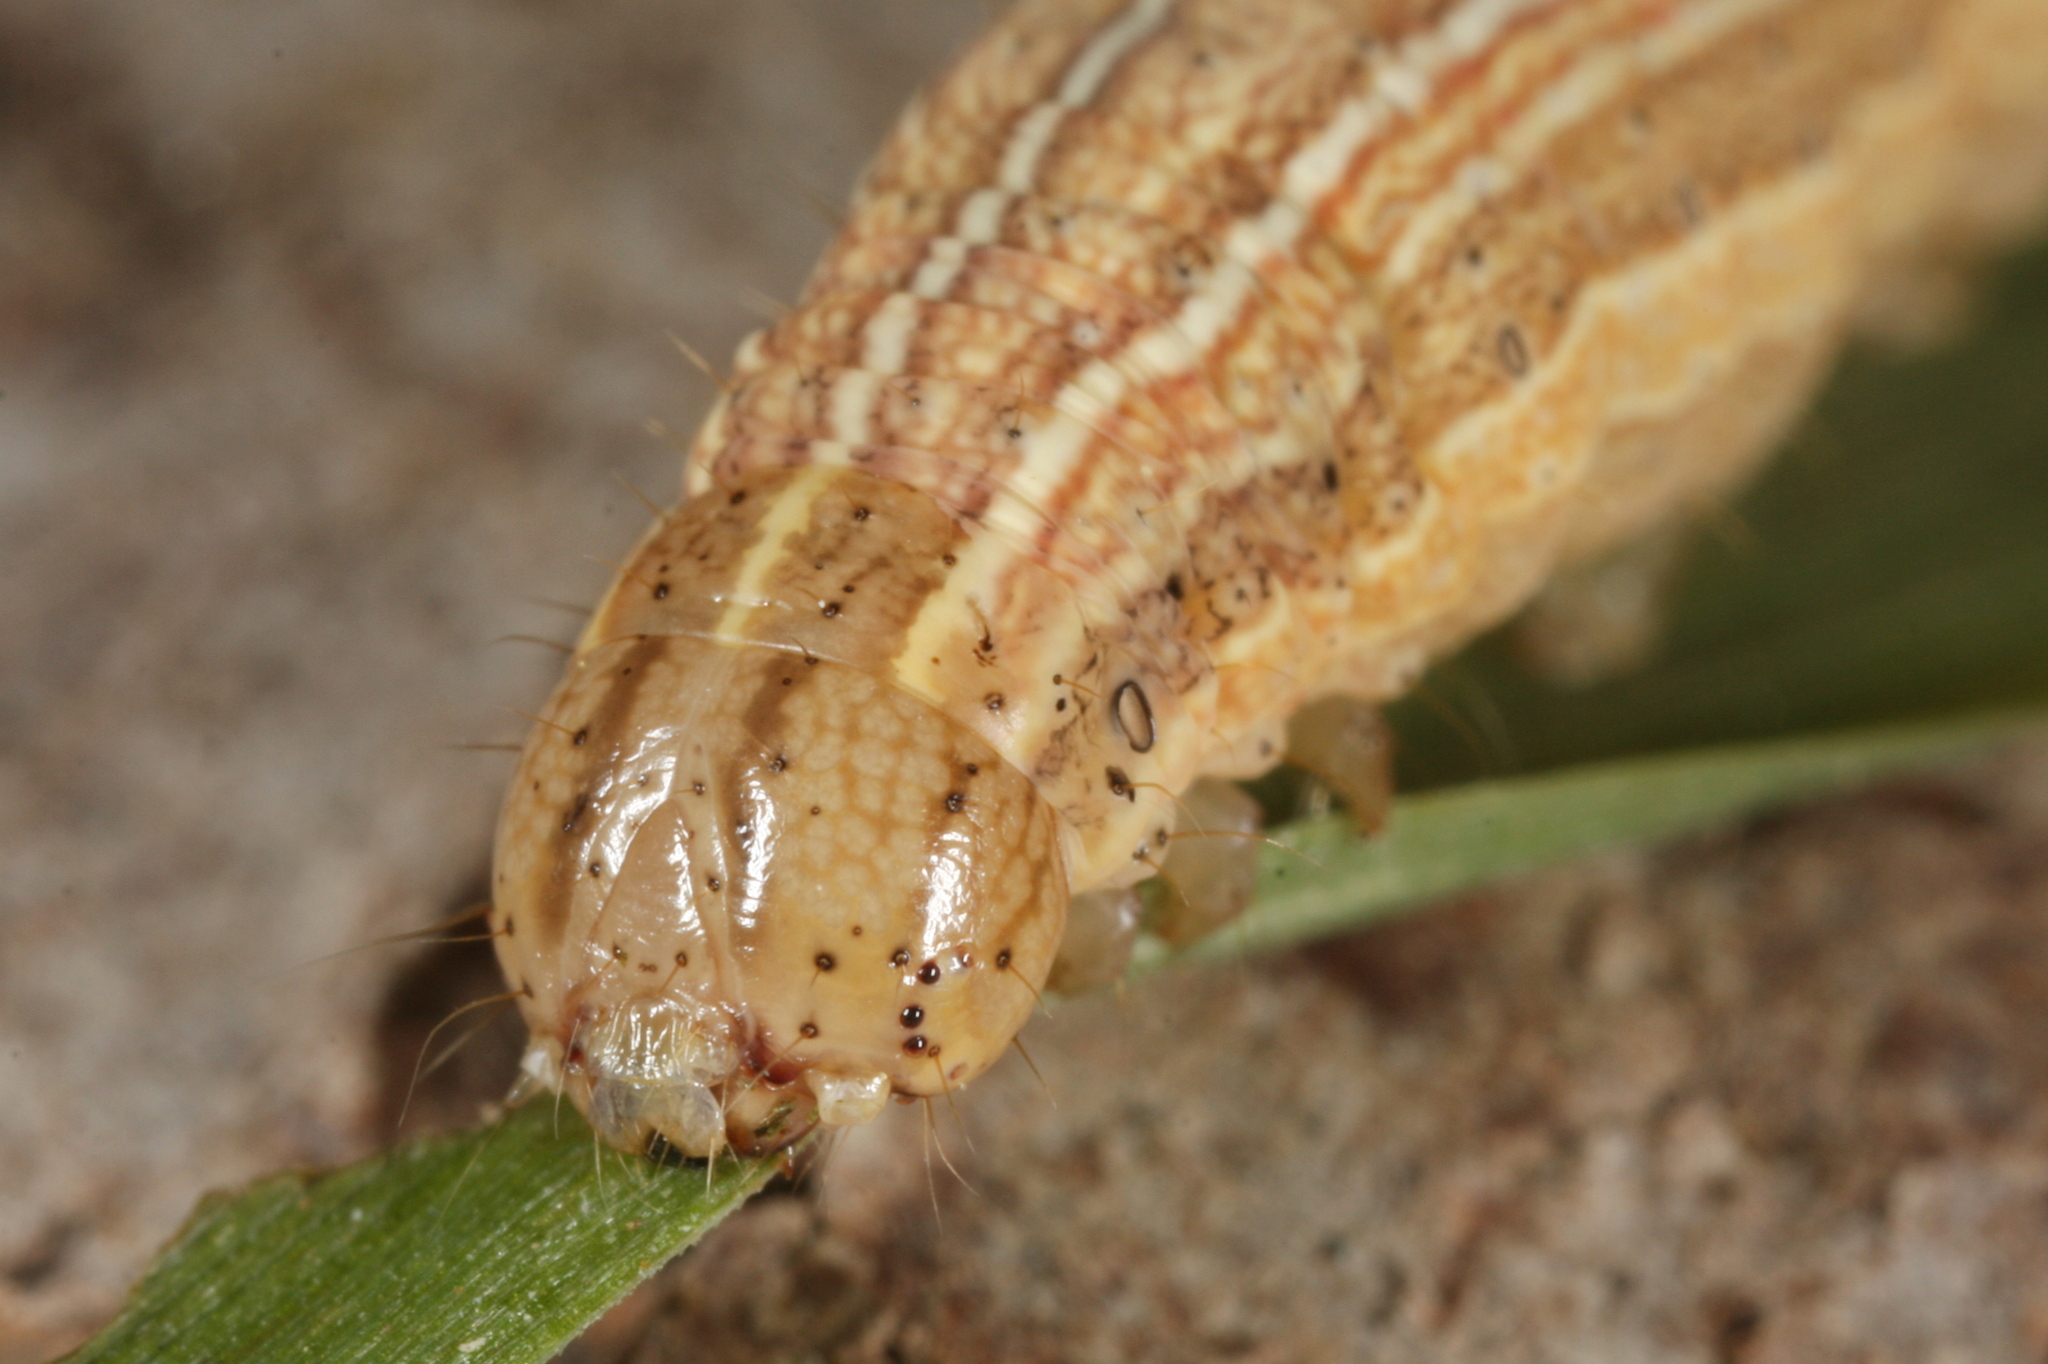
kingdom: Animalia
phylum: Arthropoda
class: Insecta
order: Lepidoptera
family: Noctuidae
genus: Mythimna
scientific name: Mythimna impura
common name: Smoky wainscot
